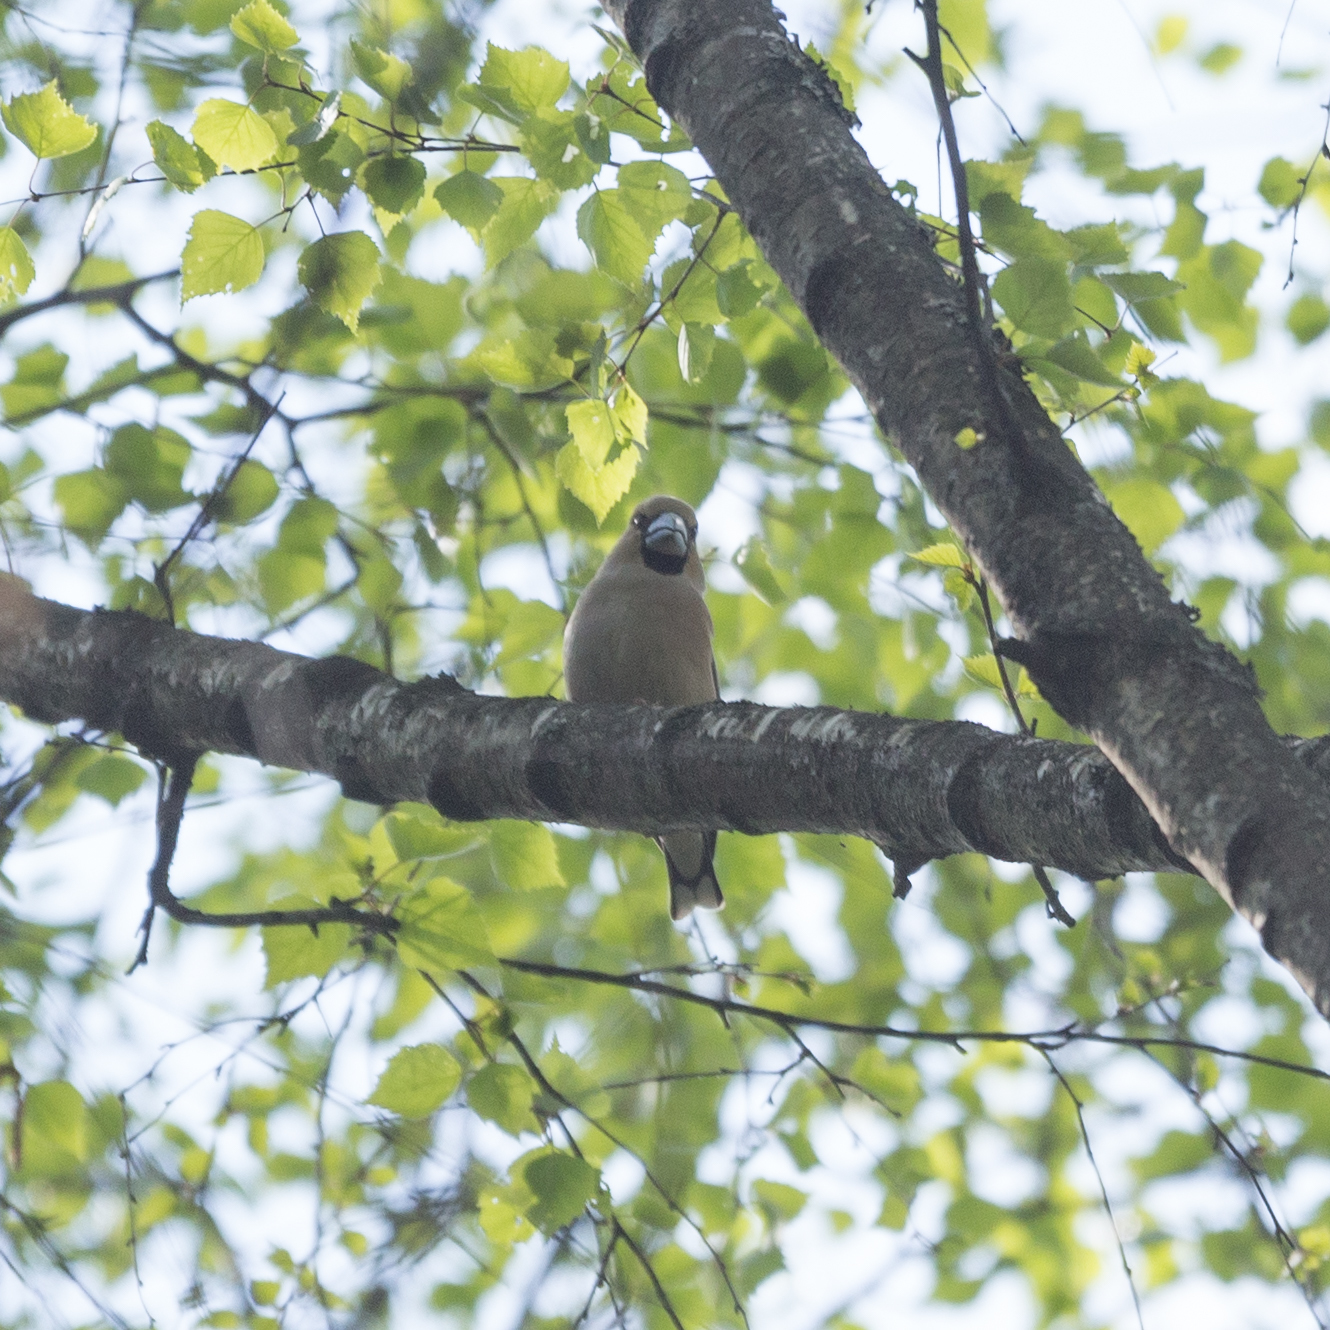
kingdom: Animalia
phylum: Chordata
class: Aves
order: Passeriformes
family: Fringillidae
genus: Coccothraustes
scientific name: Coccothraustes coccothraustes
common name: Hawfinch
